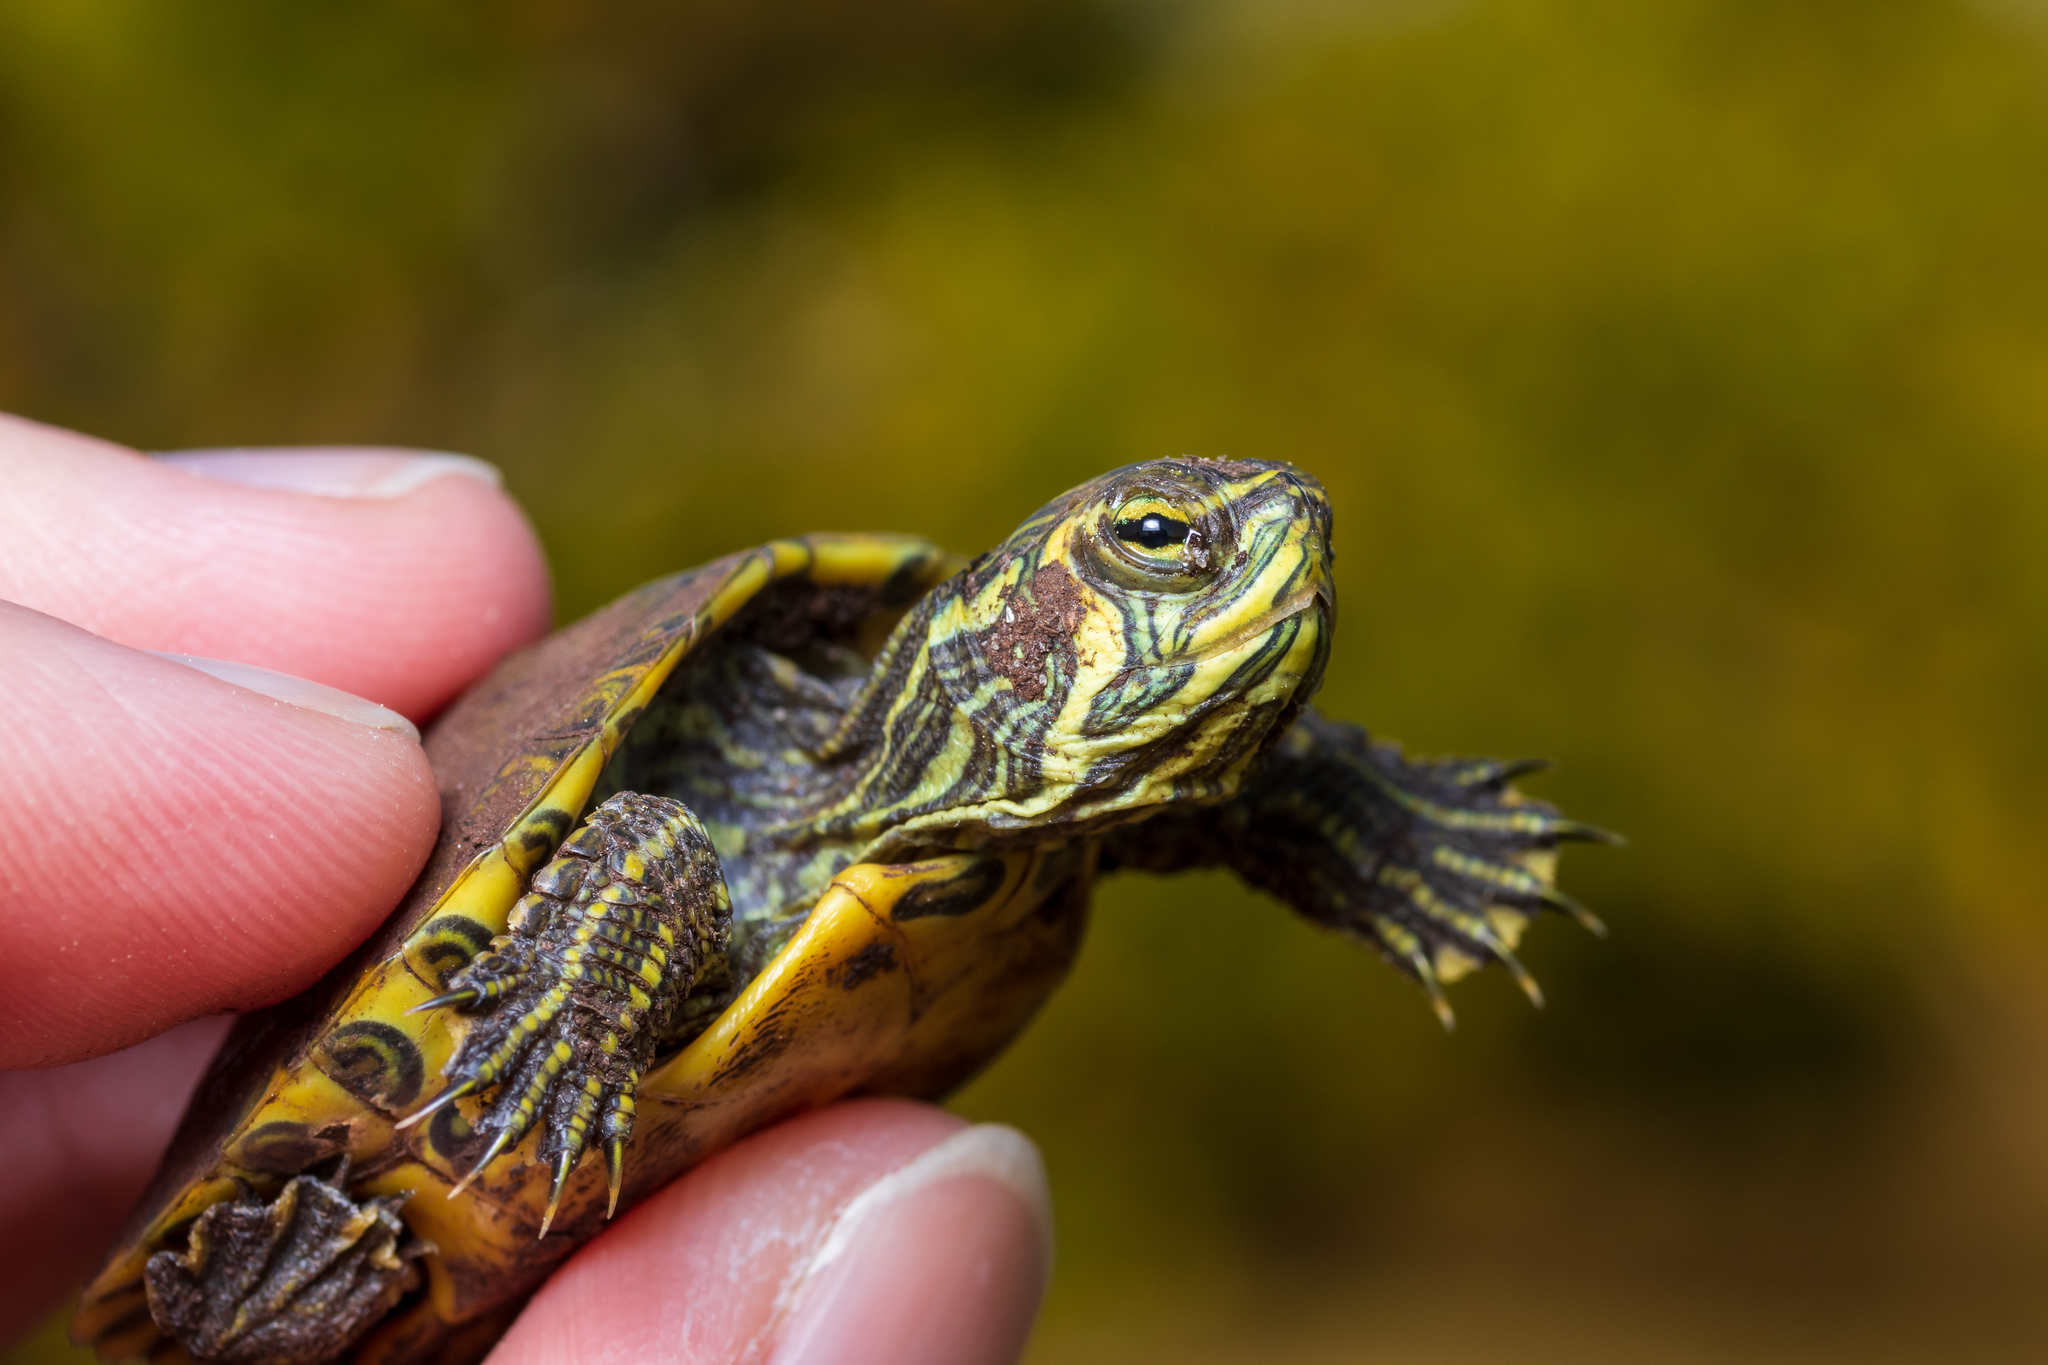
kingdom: Animalia
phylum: Chordata
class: Testudines
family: Emydidae
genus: Trachemys
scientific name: Trachemys scripta
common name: Slider
